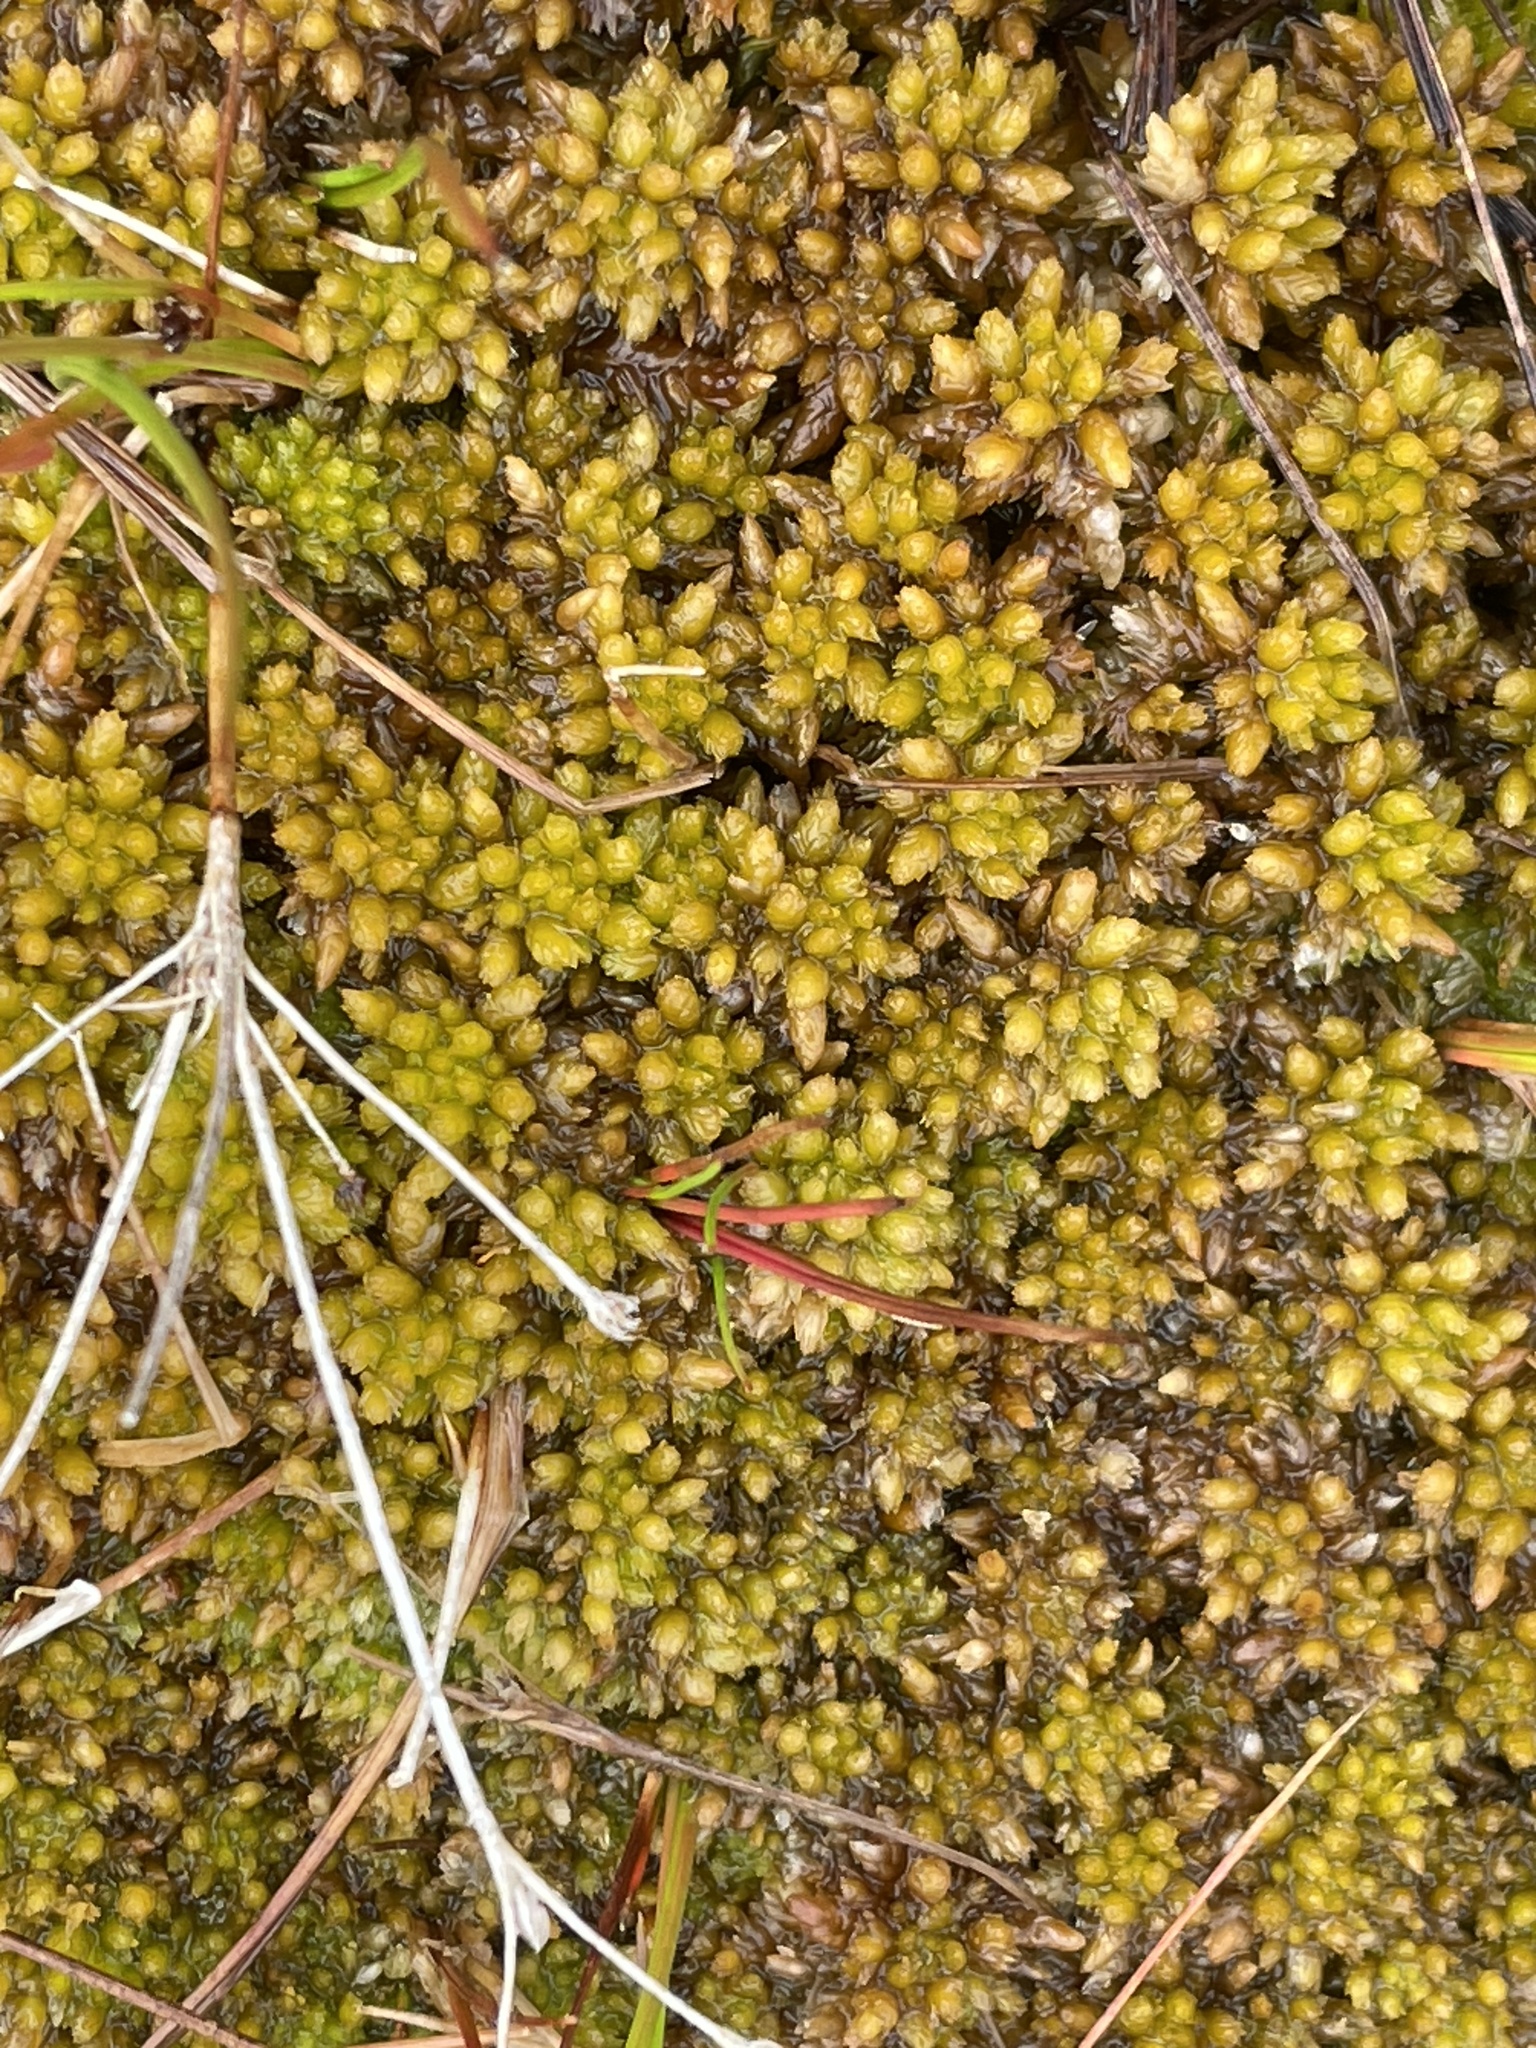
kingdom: Plantae
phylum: Bryophyta
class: Sphagnopsida
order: Sphagnales
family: Sphagnaceae
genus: Sphagnum
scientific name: Sphagnum papillosum
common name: Papillose peat moss
